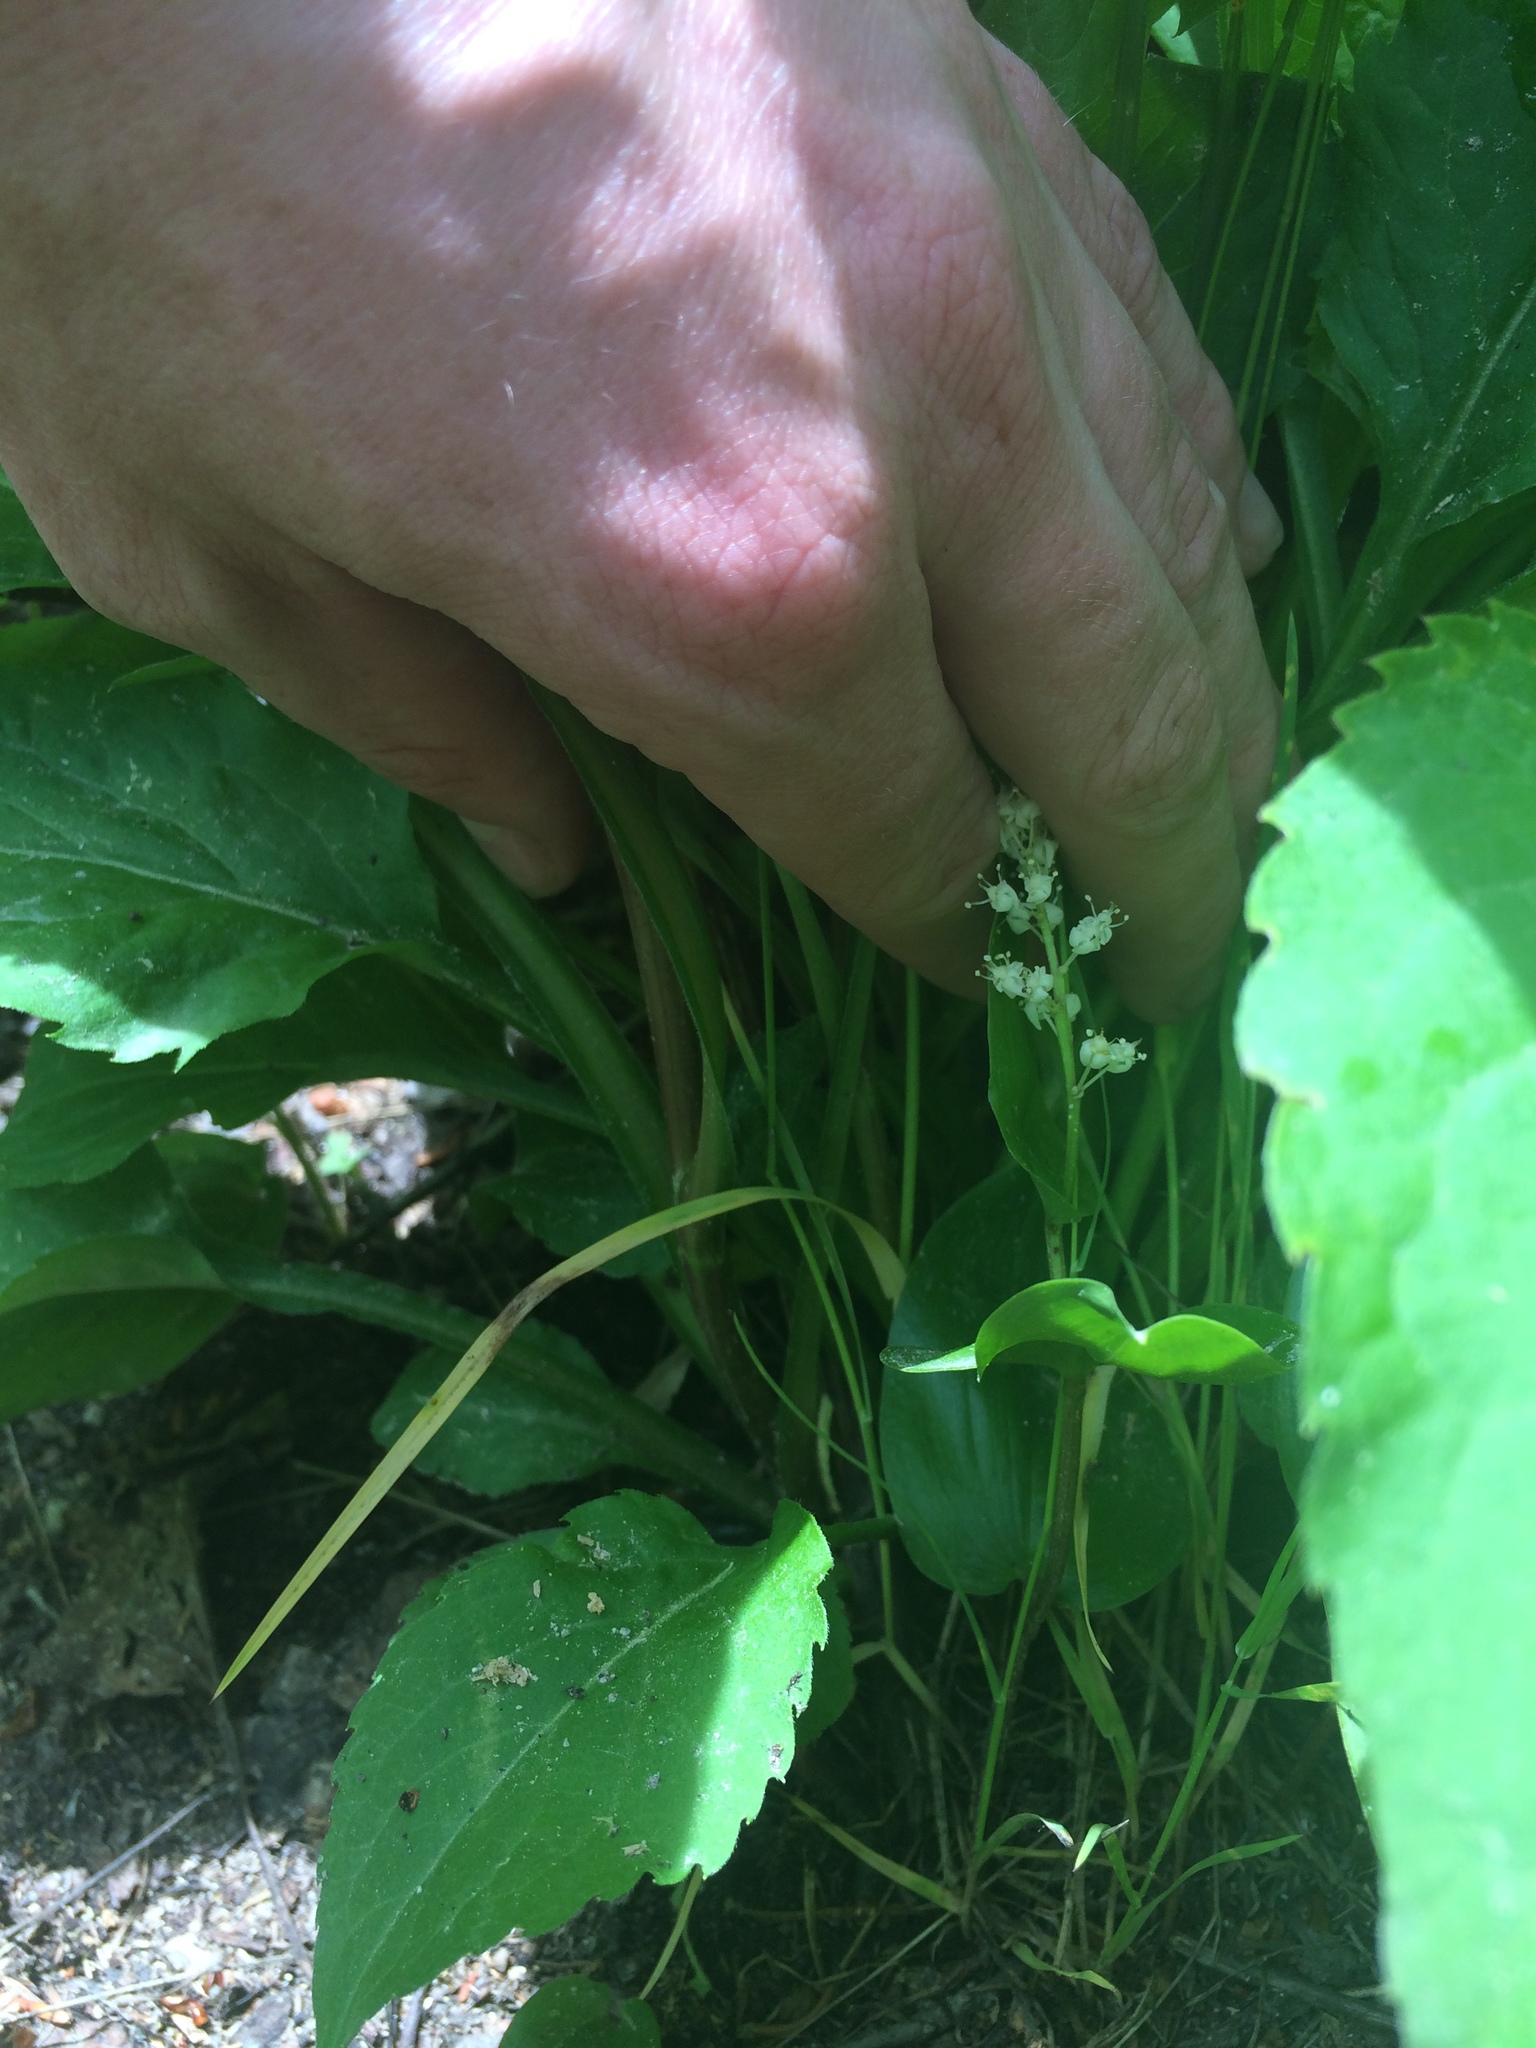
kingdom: Plantae
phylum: Tracheophyta
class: Liliopsida
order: Asparagales
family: Asparagaceae
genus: Maianthemum
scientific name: Maianthemum canadense
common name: False lily-of-the-valley
